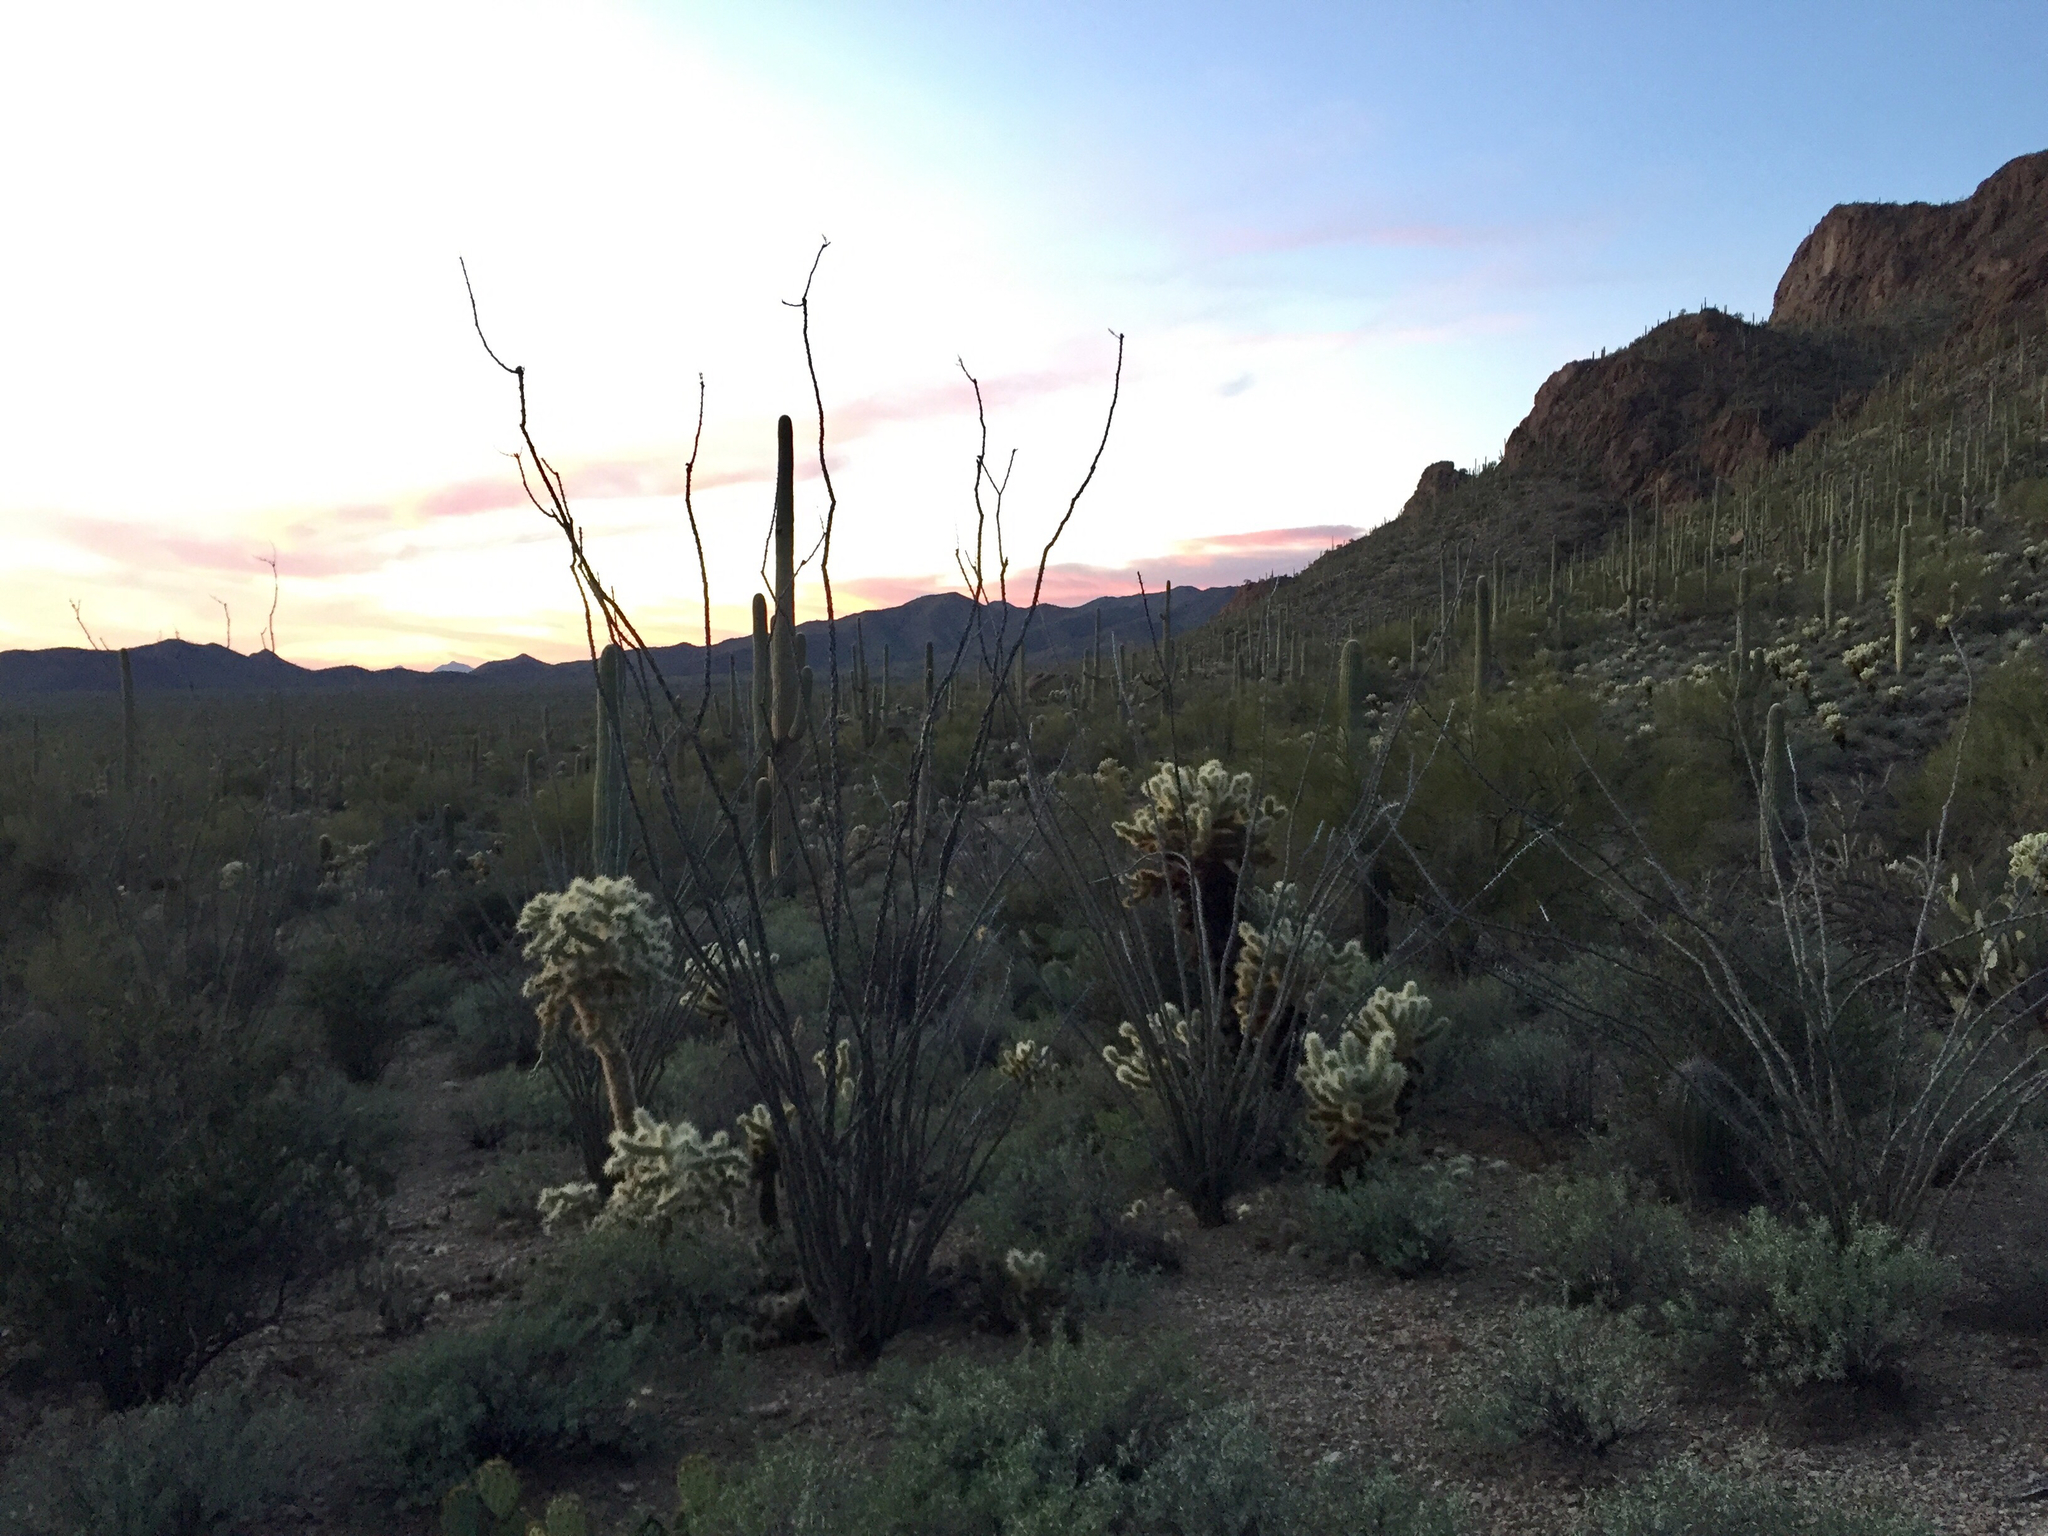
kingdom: Plantae
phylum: Tracheophyta
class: Magnoliopsida
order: Ericales
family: Fouquieriaceae
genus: Fouquieria
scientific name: Fouquieria splendens
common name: Vine-cactus
